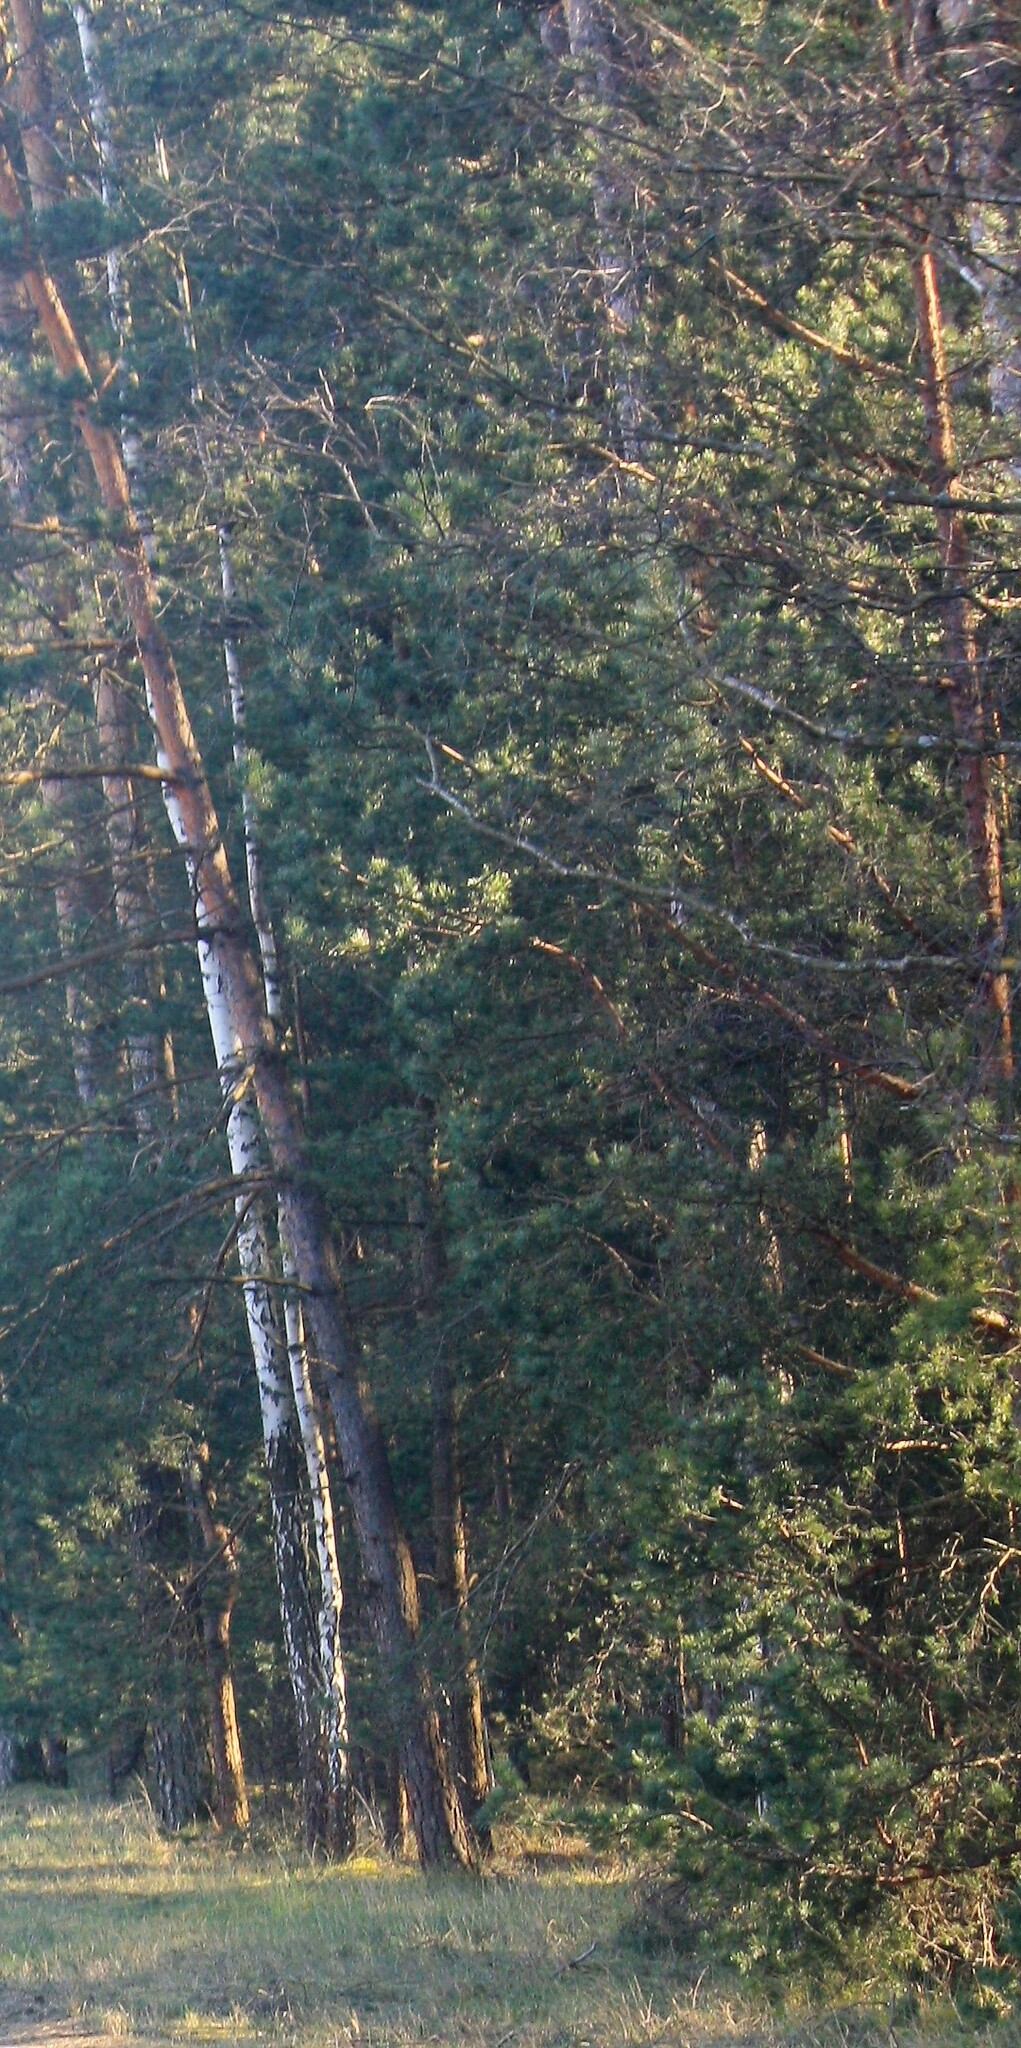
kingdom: Plantae
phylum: Tracheophyta
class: Pinopsida
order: Pinales
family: Pinaceae
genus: Pinus
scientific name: Pinus sylvestris
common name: Scots pine
